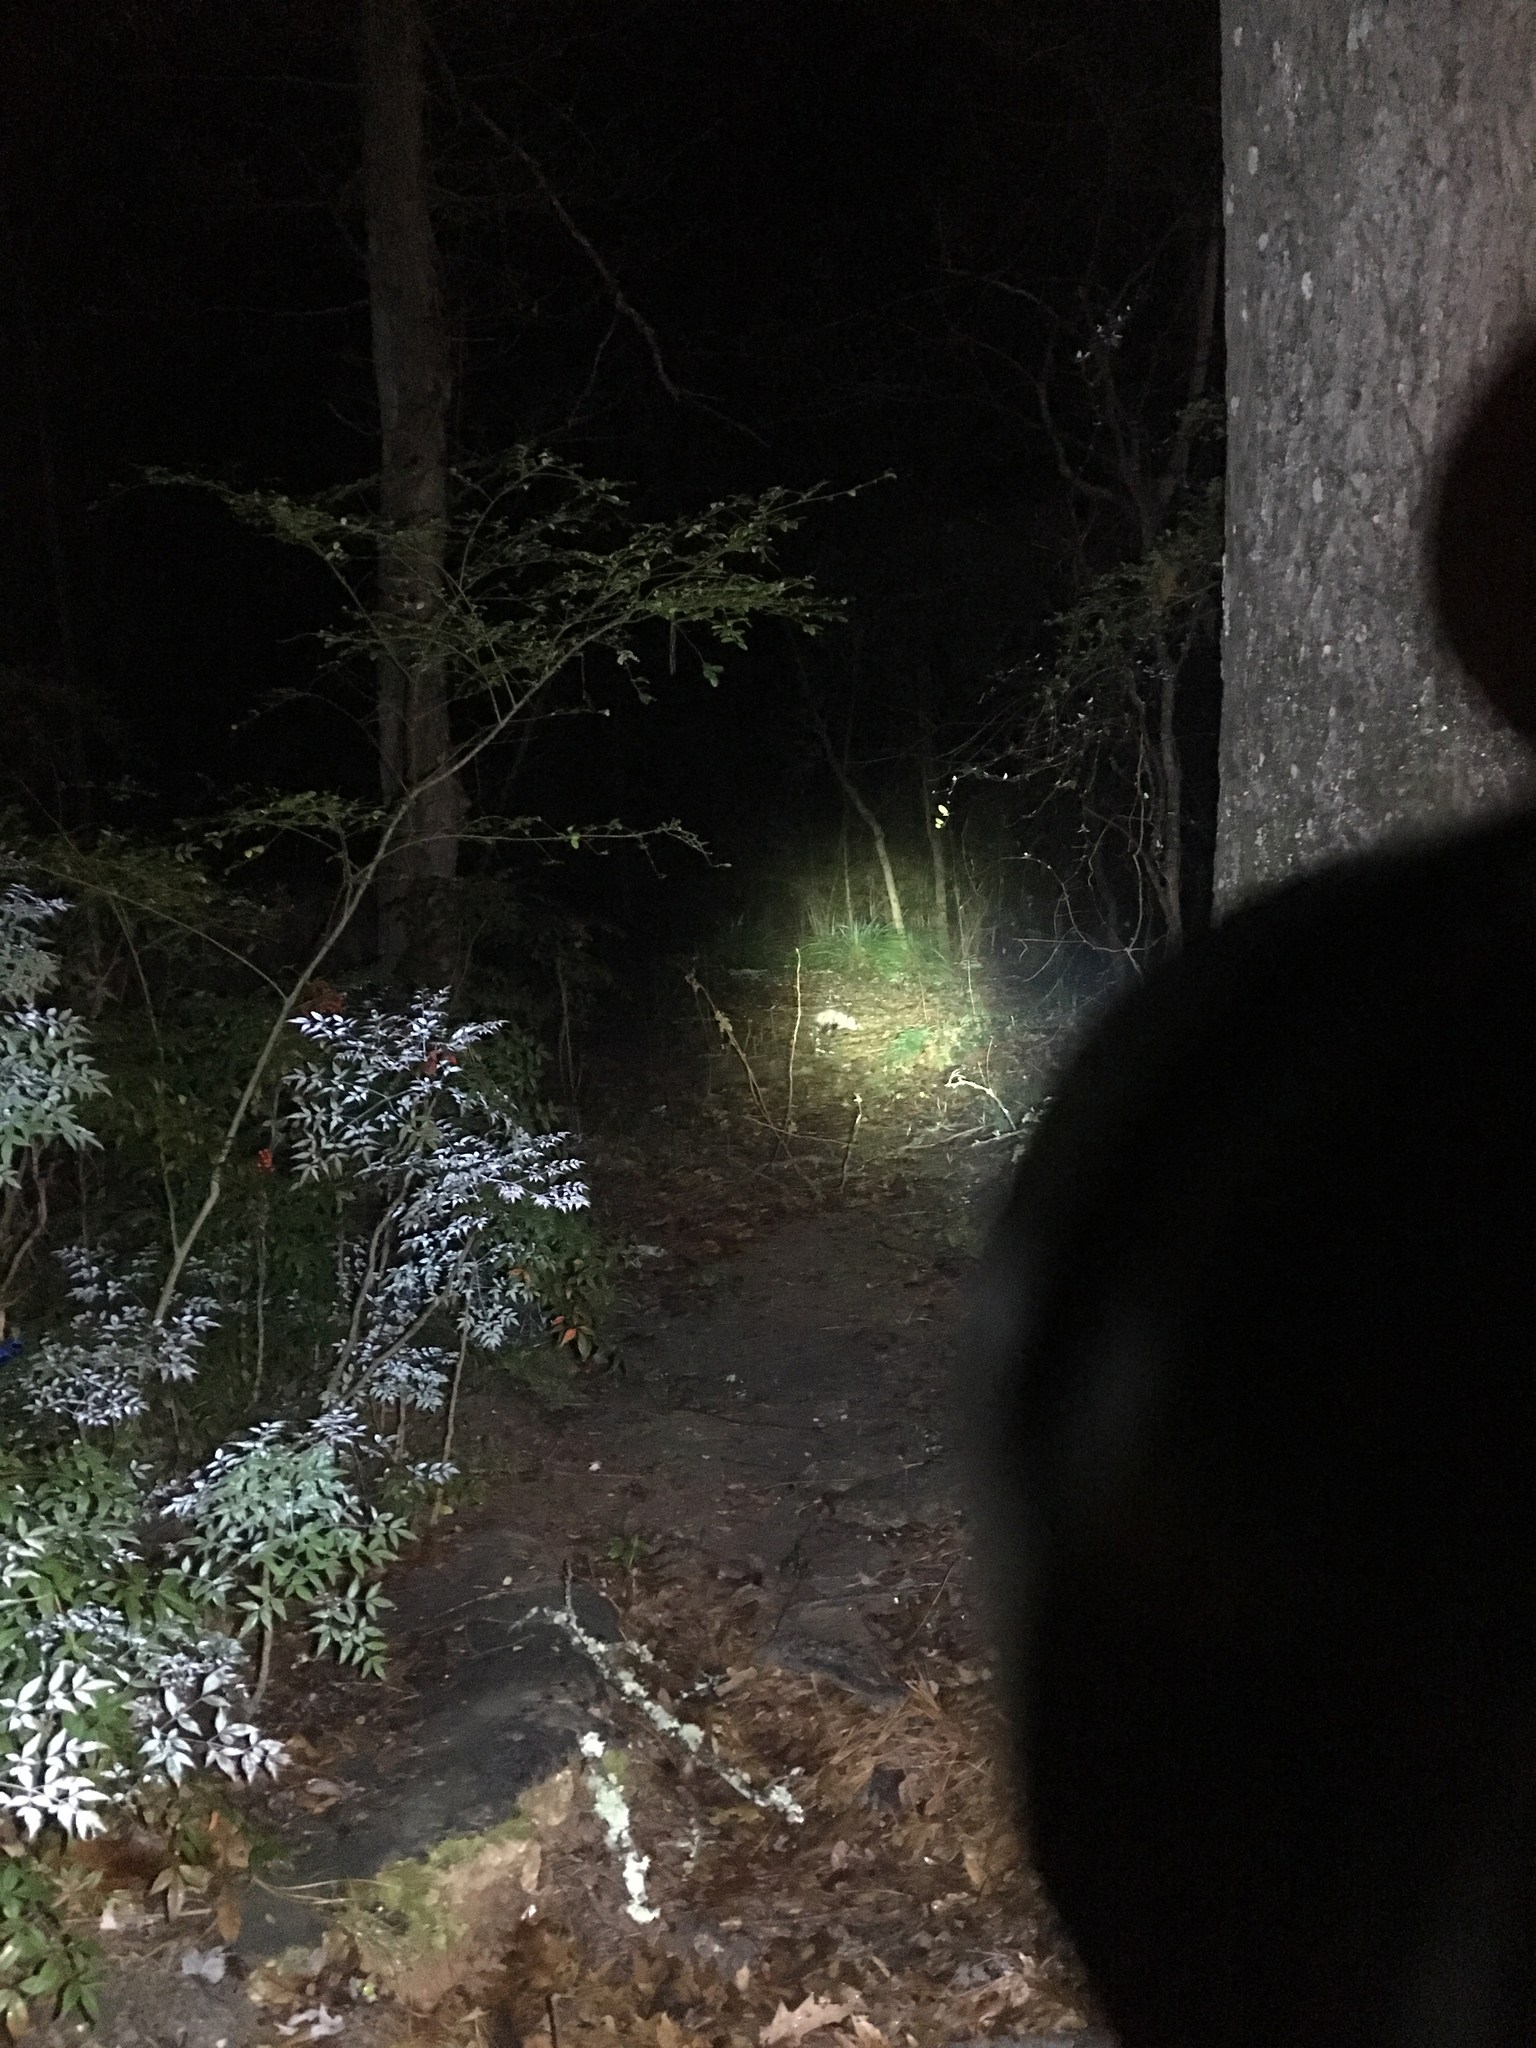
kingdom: Animalia
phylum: Chordata
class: Mammalia
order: Didelphimorphia
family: Didelphidae
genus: Didelphis
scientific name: Didelphis virginiana
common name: Virginia opossum
